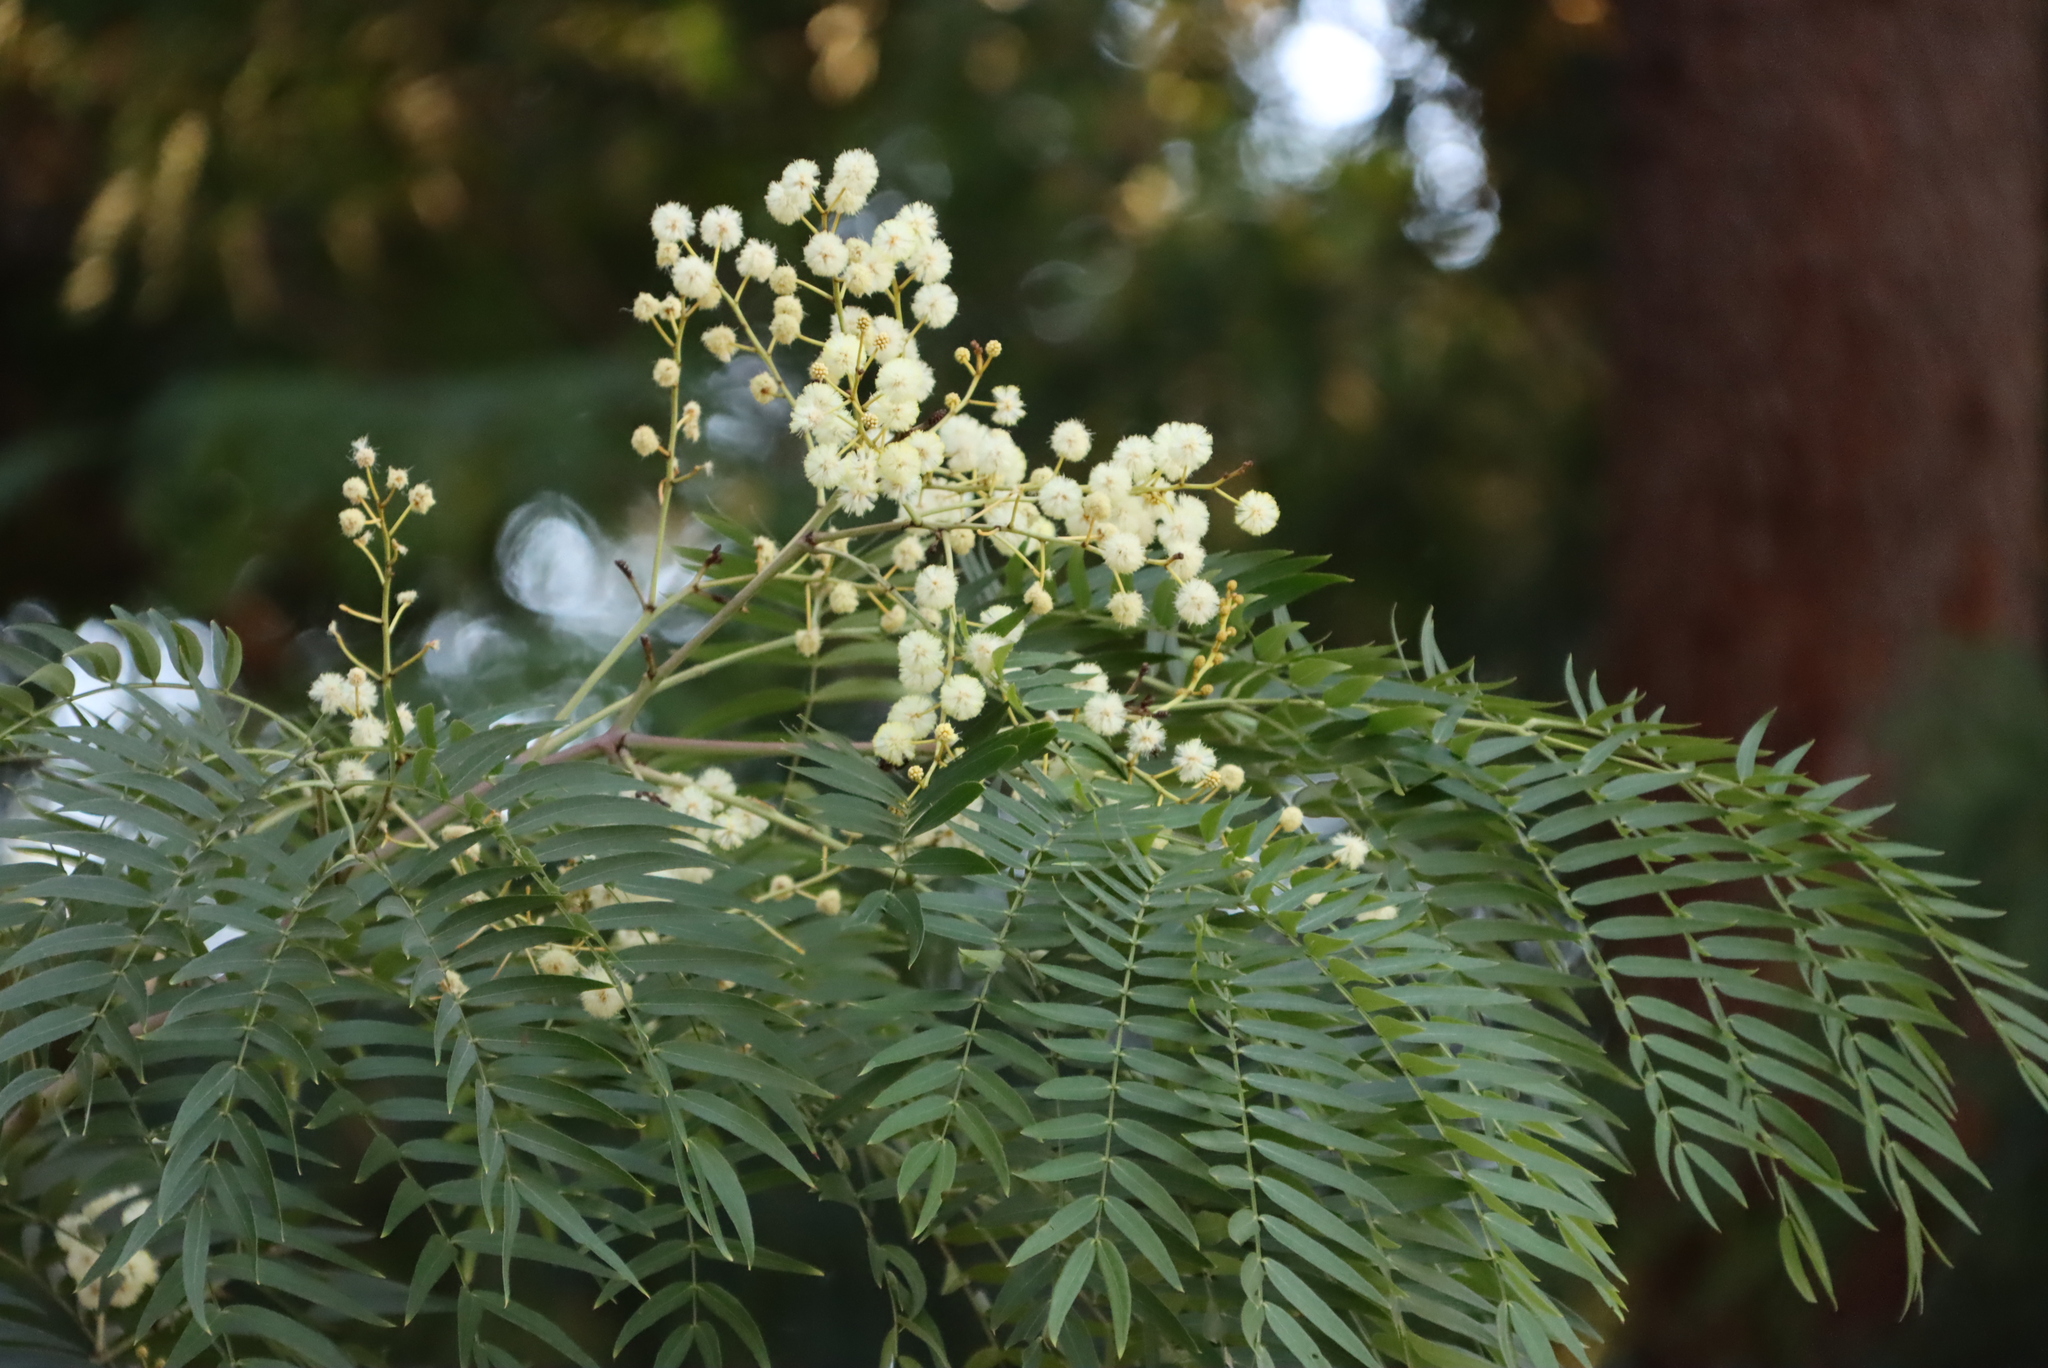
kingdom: Plantae
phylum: Tracheophyta
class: Magnoliopsida
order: Fabales
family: Fabaceae
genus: Acacia
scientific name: Acacia elata
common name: Cedar wattle
